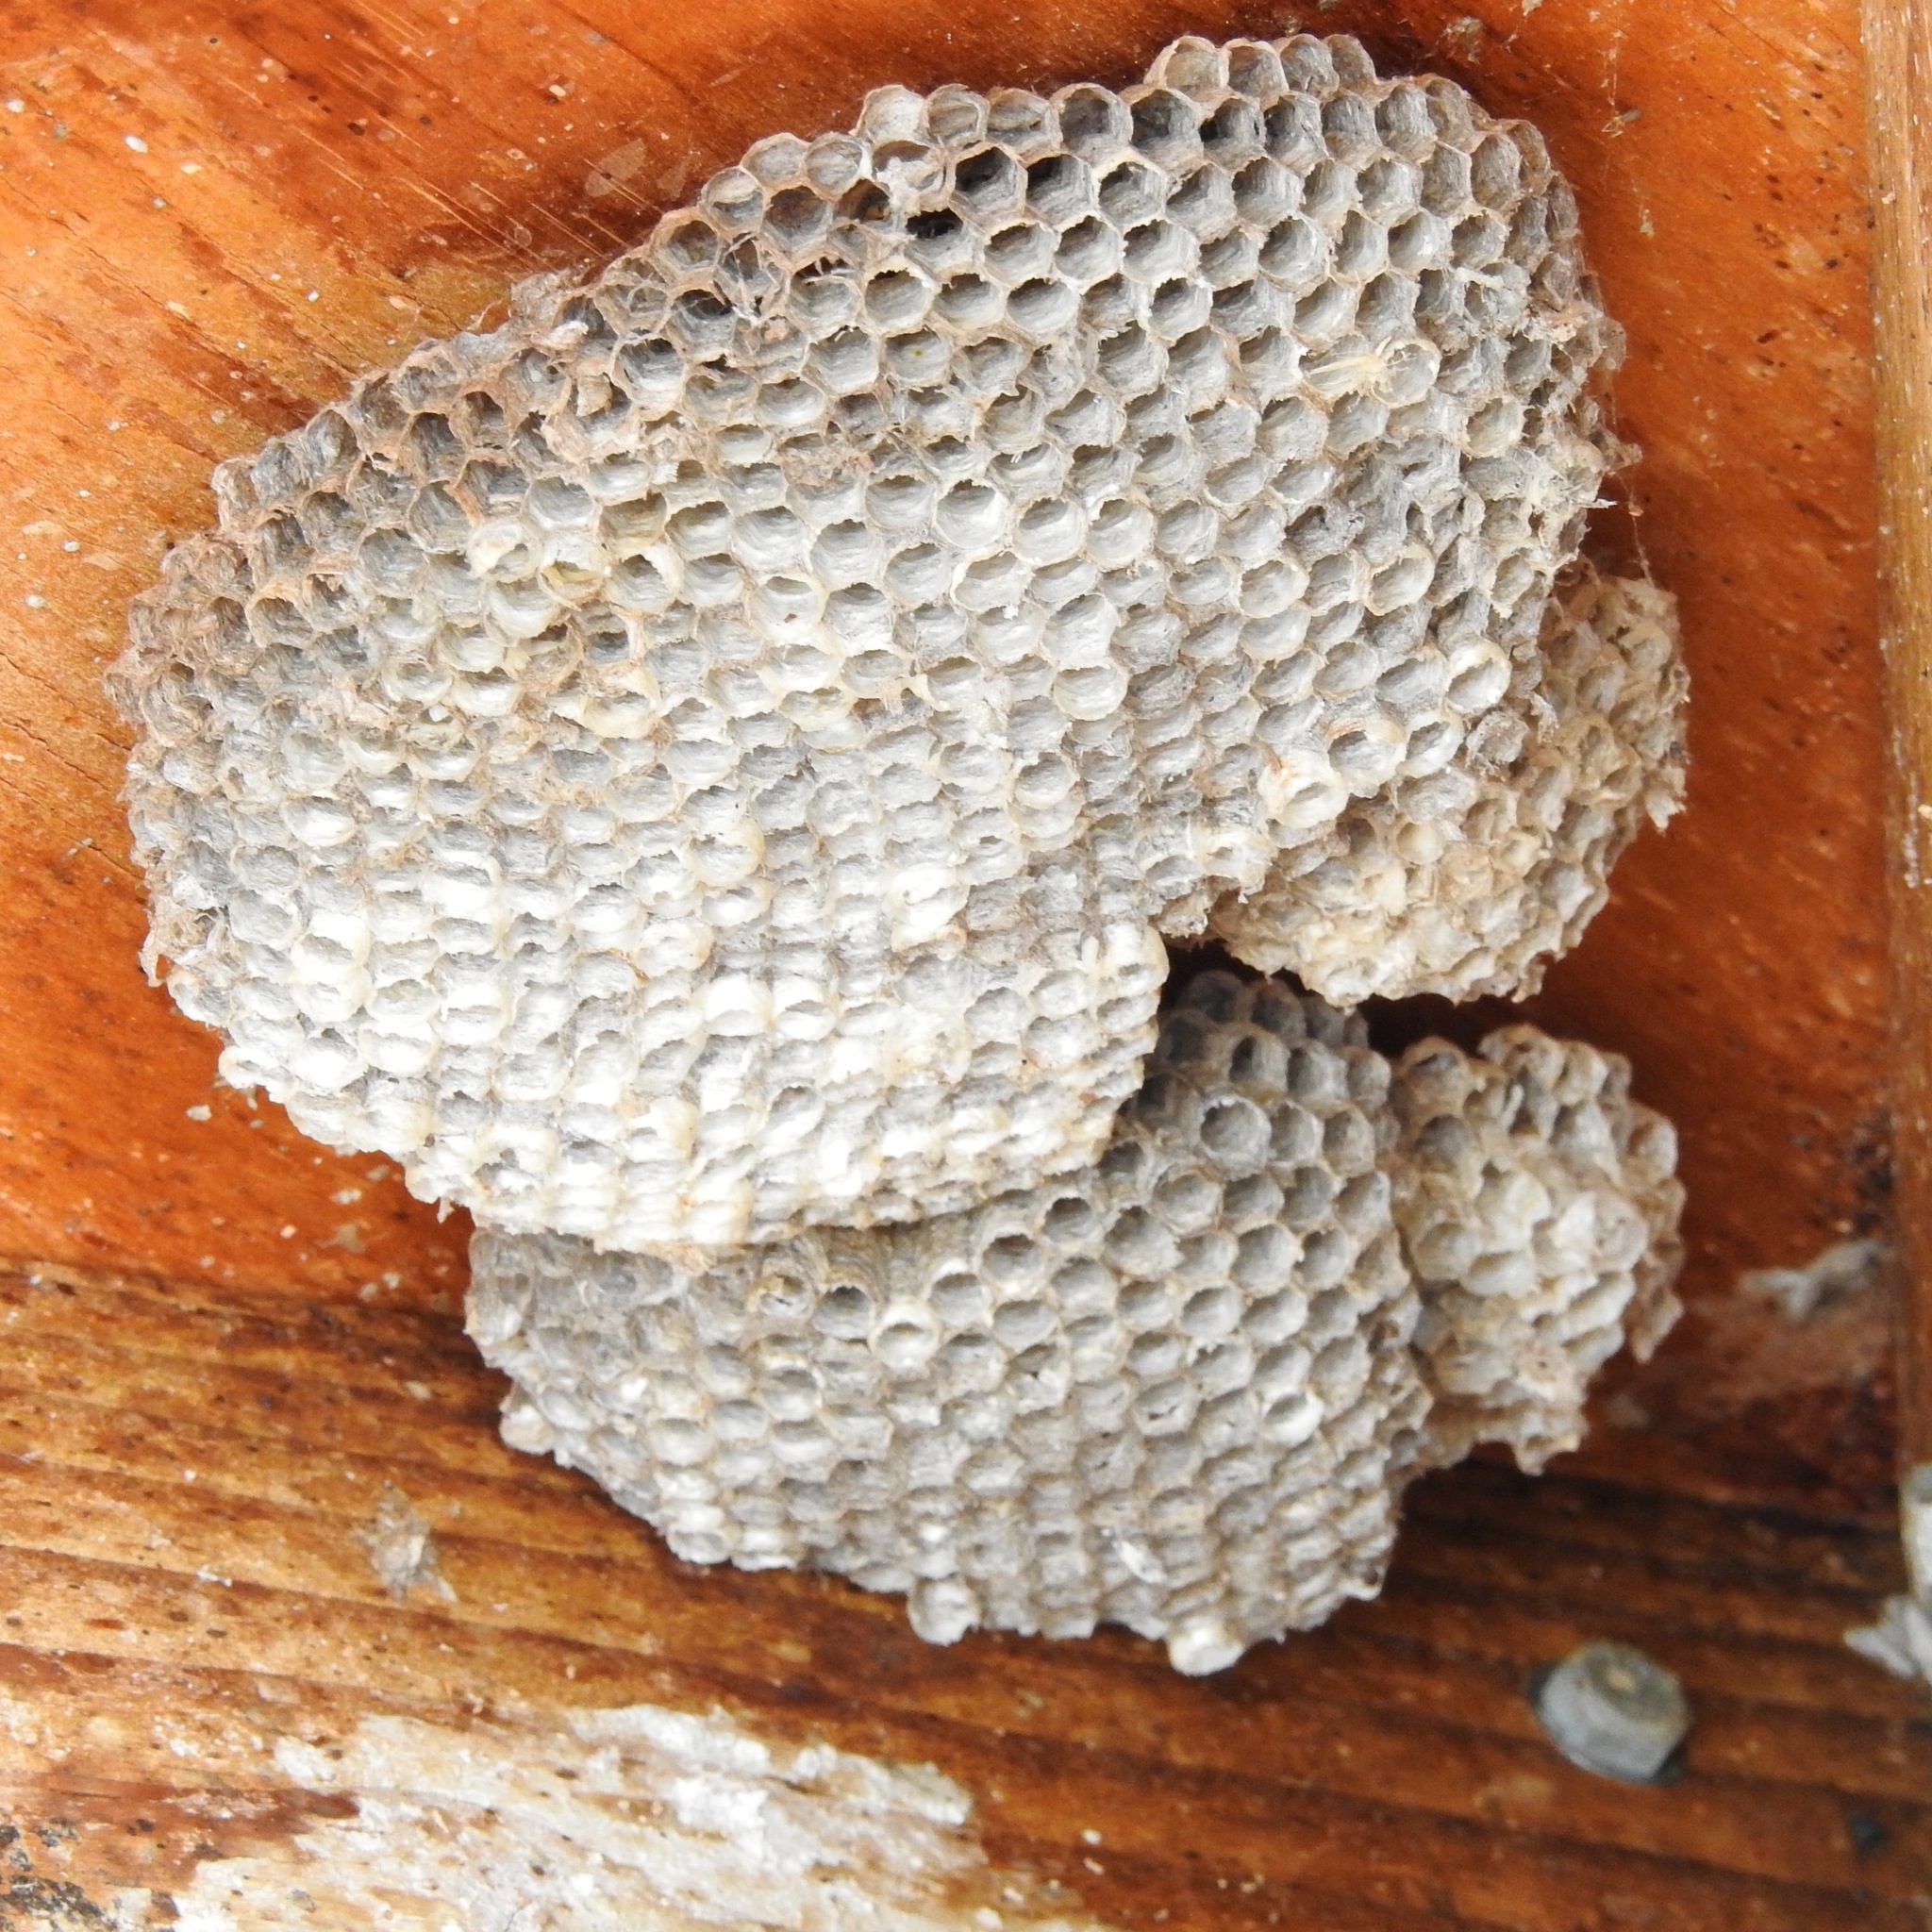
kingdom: Animalia
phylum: Arthropoda
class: Insecta
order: Hymenoptera
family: Vespidae
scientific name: Vespidae
